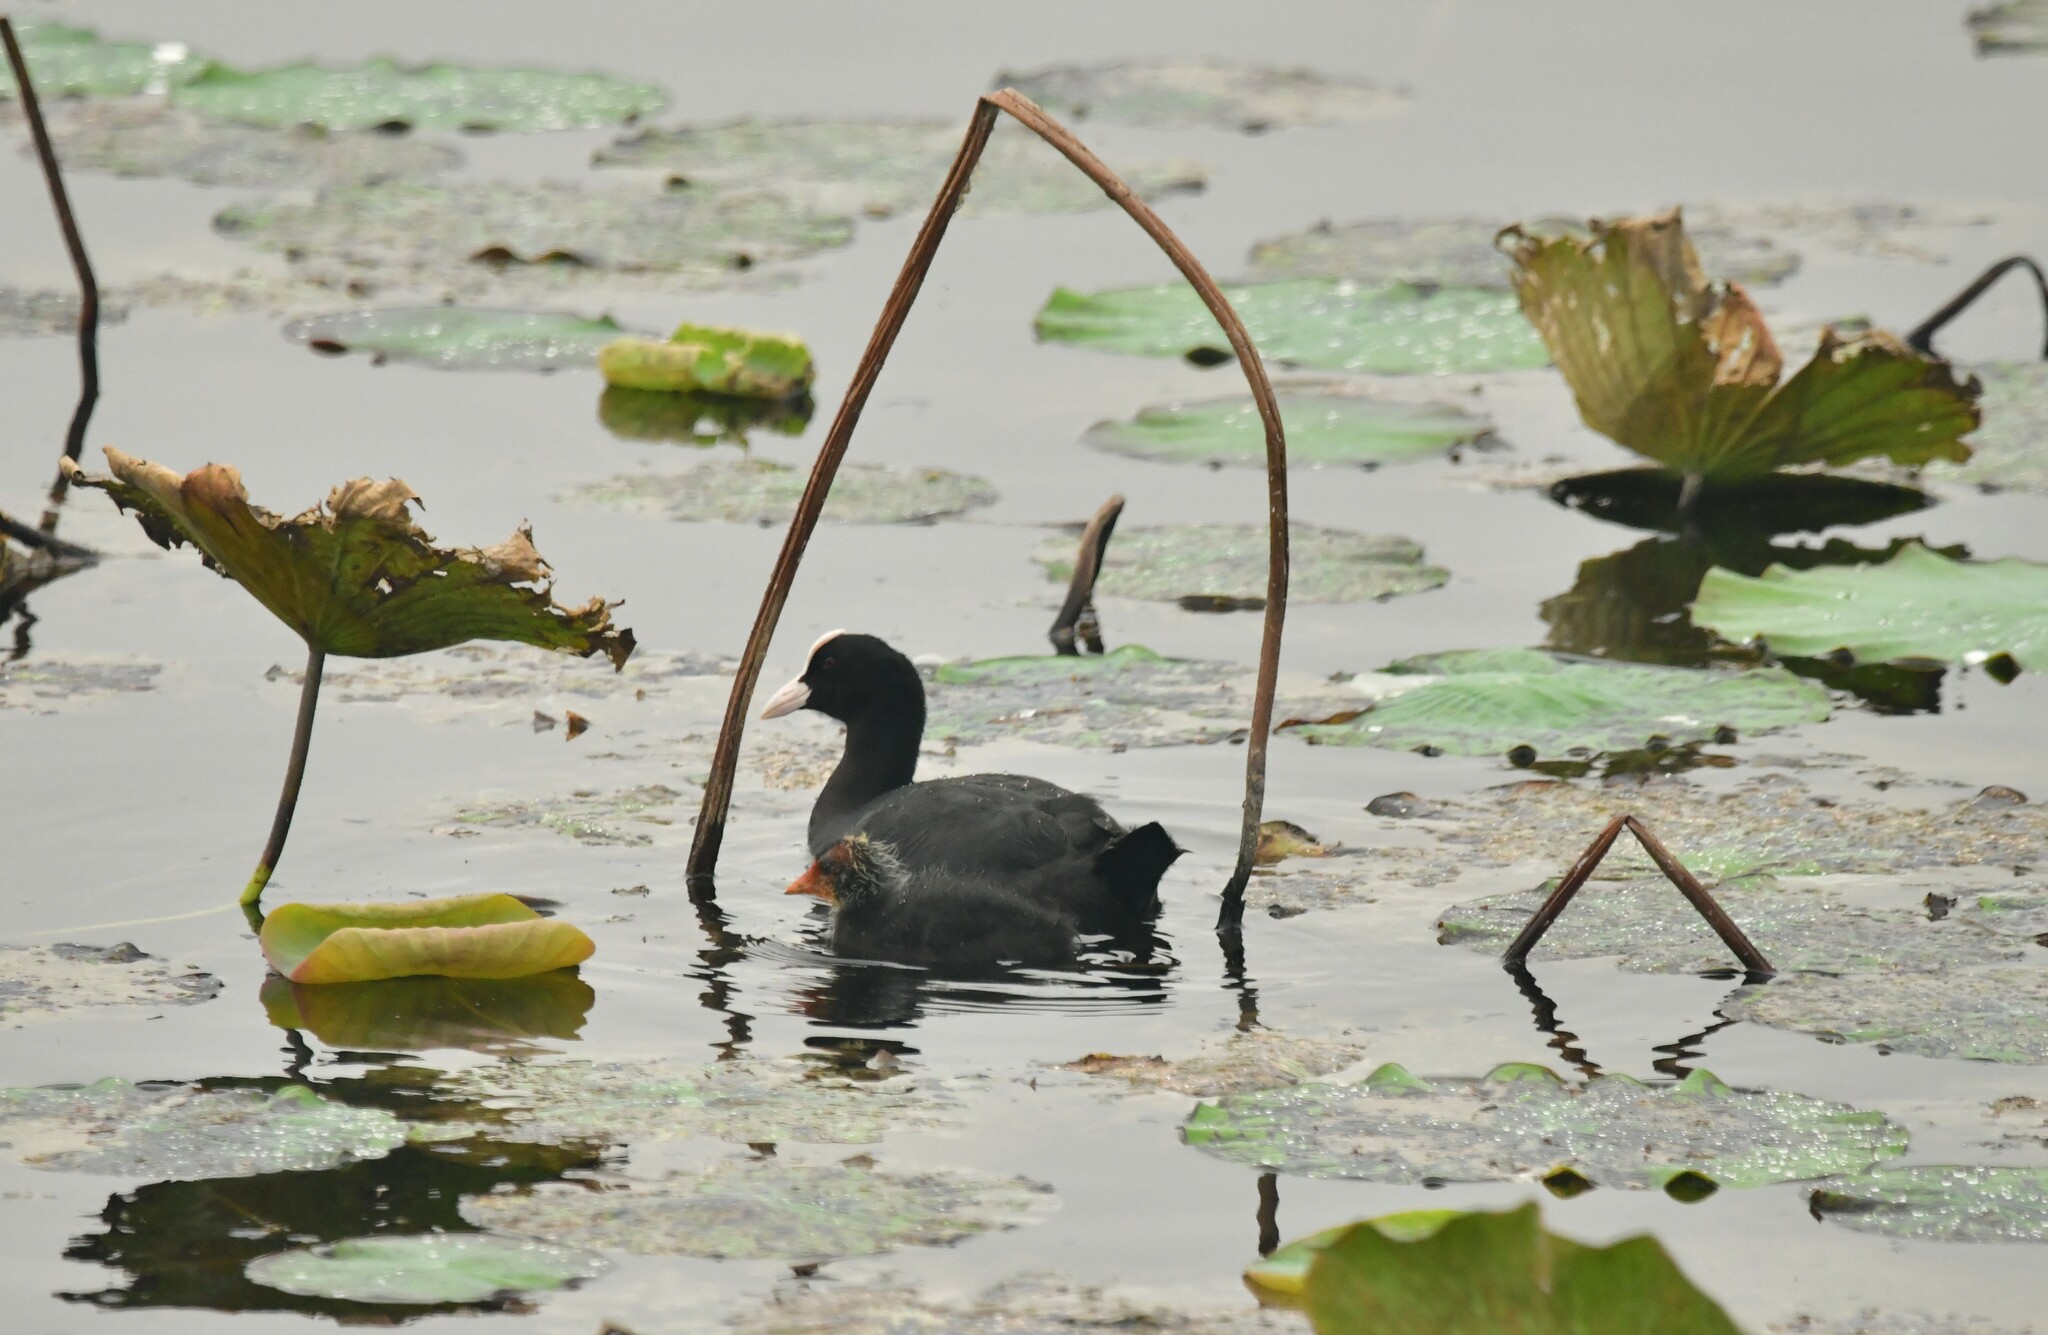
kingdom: Animalia
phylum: Chordata
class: Aves
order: Gruiformes
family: Rallidae
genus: Fulica
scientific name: Fulica atra
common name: Eurasian coot
